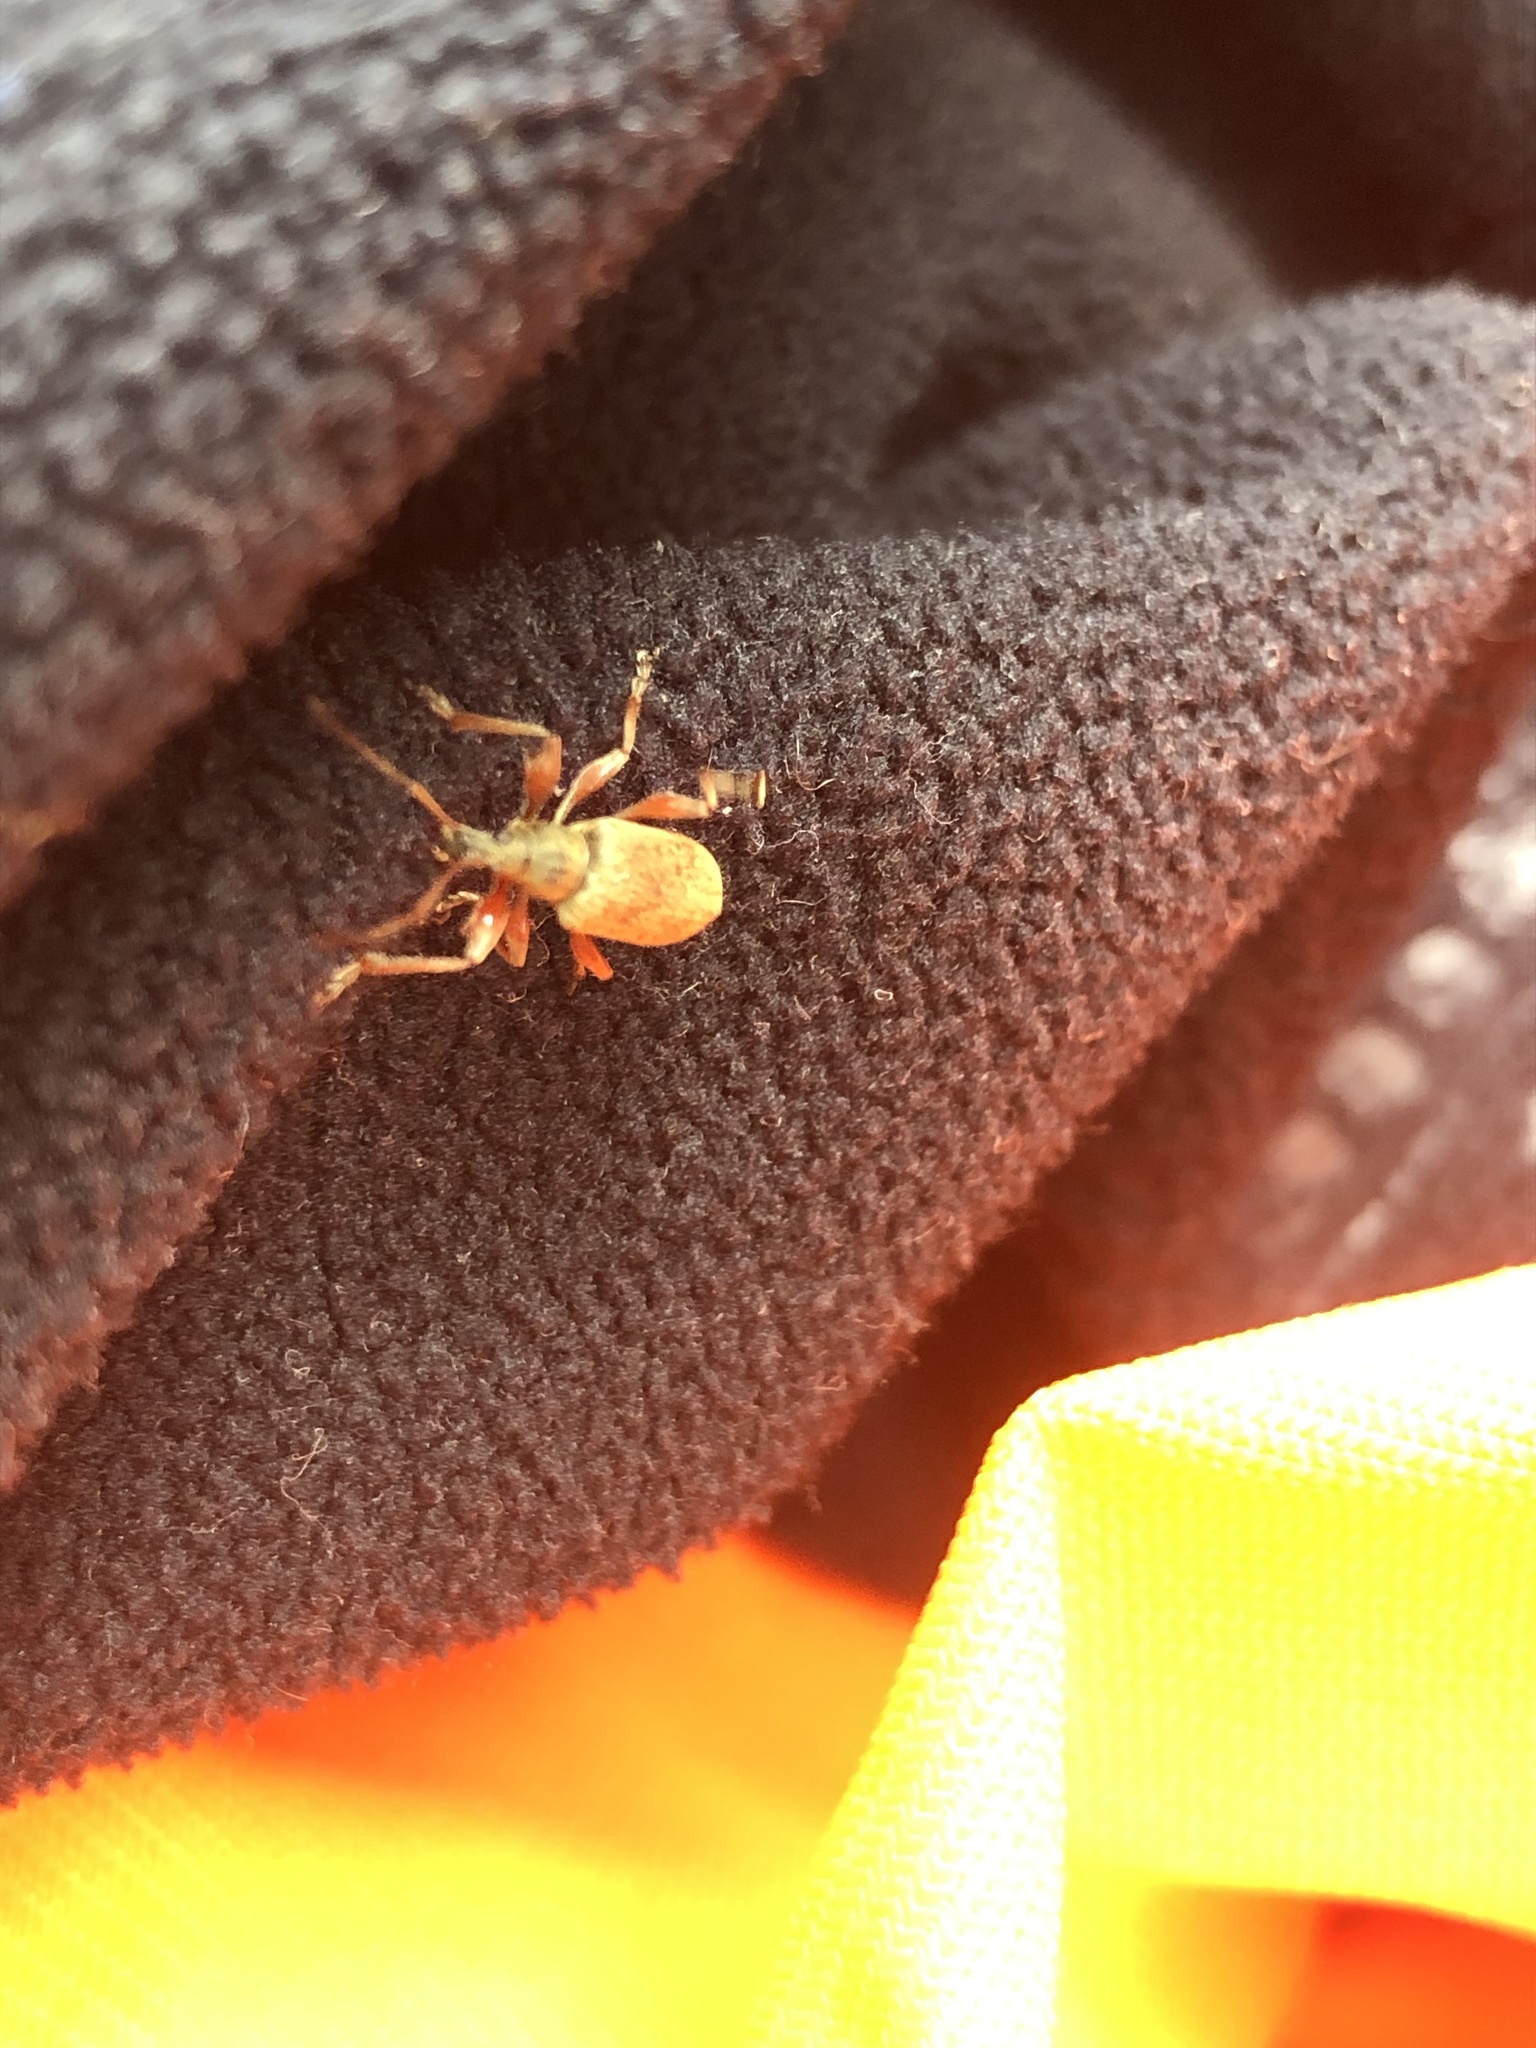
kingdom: Animalia
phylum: Arthropoda
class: Insecta
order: Coleoptera
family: Curculionidae
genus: Phyllobius
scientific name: Phyllobius glaucus
